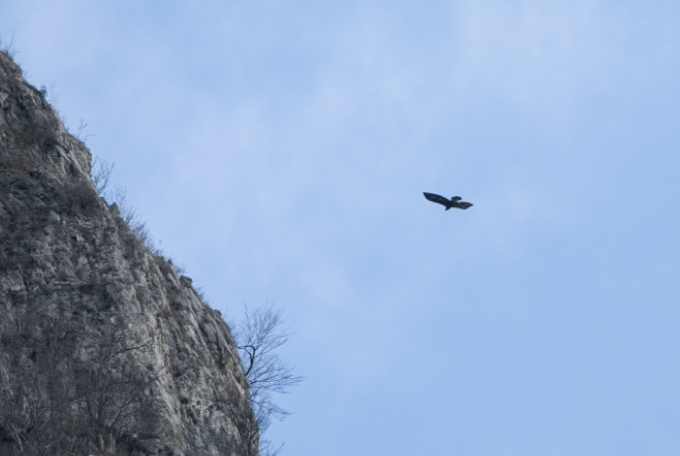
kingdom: Animalia
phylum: Chordata
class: Aves
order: Accipitriformes
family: Accipitridae
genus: Aquila
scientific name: Aquila chrysaetos
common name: Golden eagle
